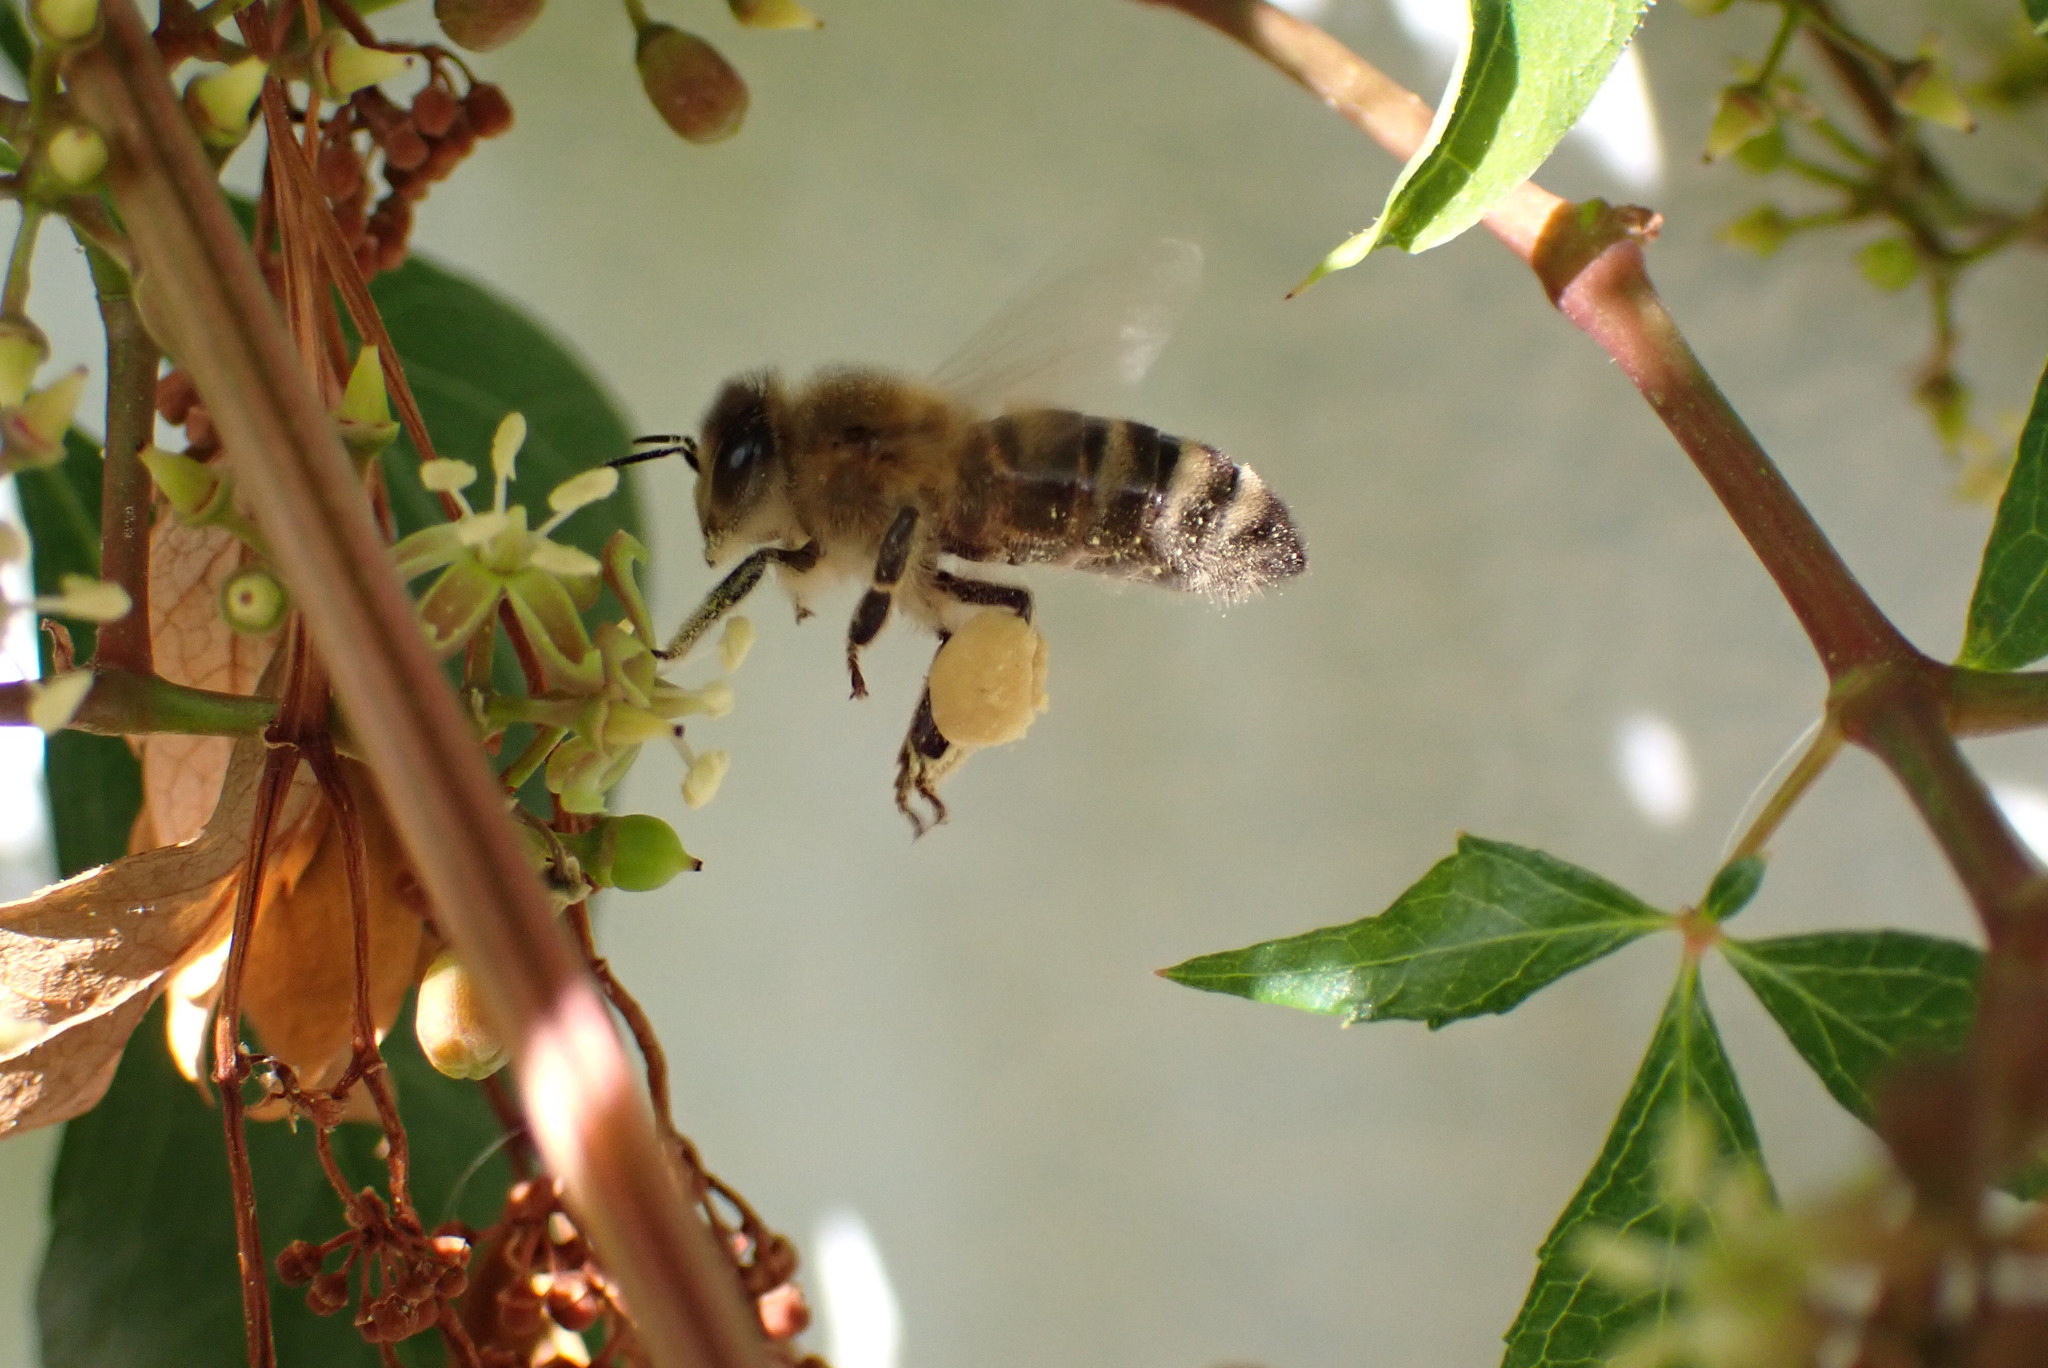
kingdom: Animalia
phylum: Arthropoda
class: Insecta
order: Hymenoptera
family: Apidae
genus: Apis
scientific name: Apis mellifera
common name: Honey bee
